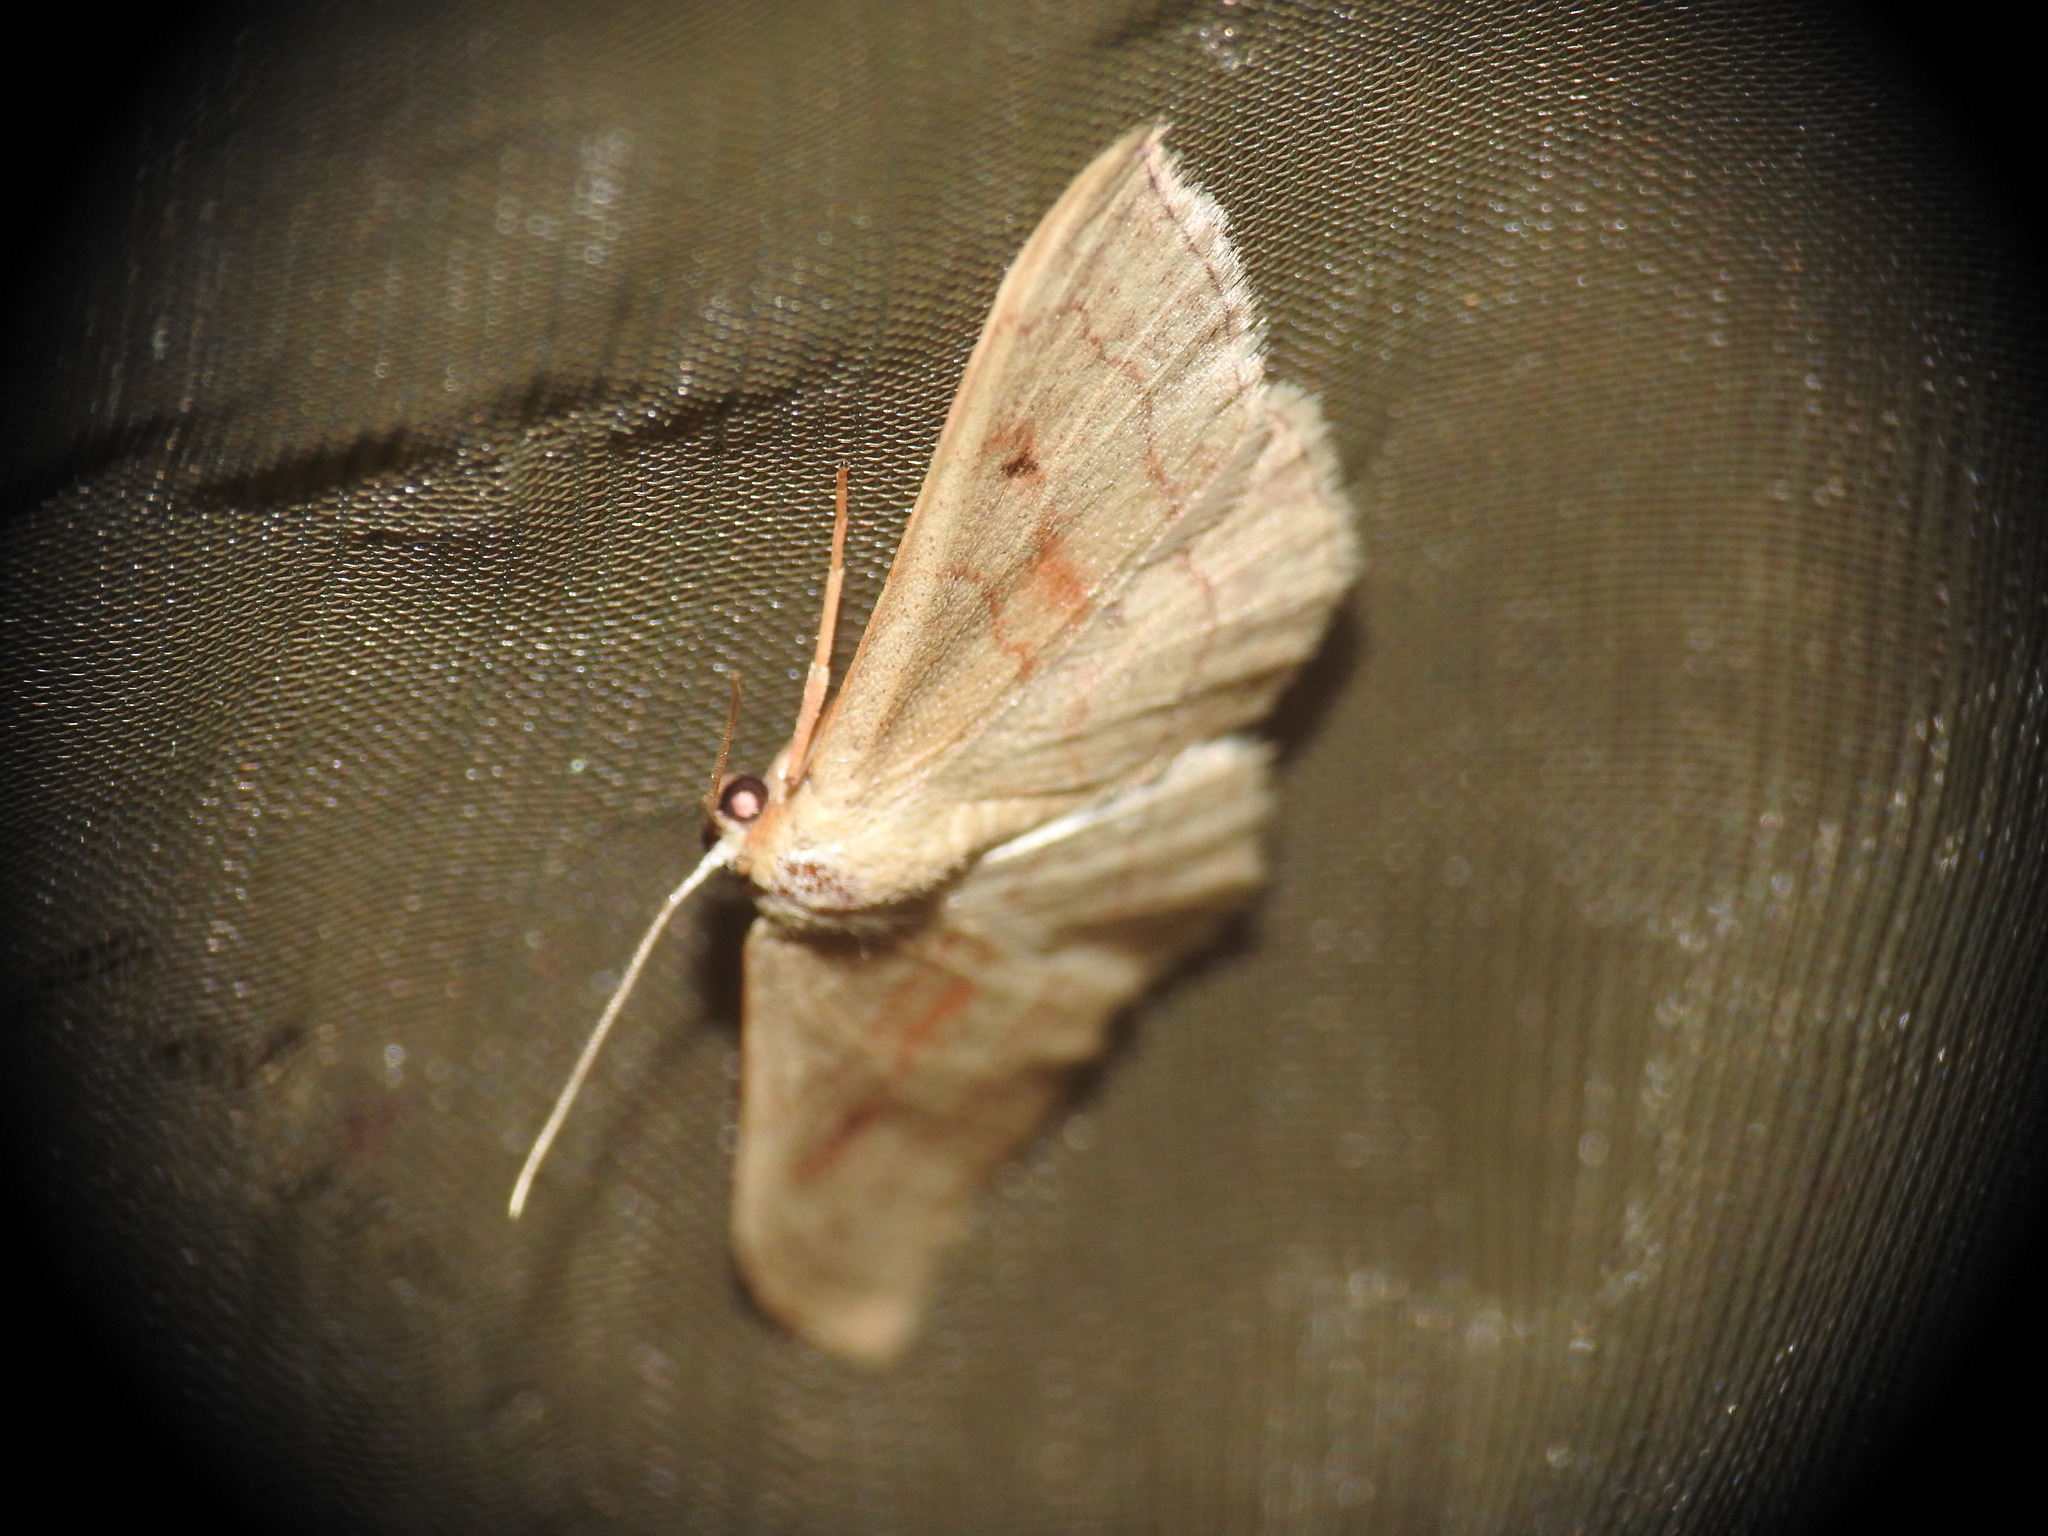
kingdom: Animalia
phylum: Arthropoda
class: Insecta
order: Lepidoptera
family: Geometridae
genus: Idaea
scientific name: Idaea bilinearia
